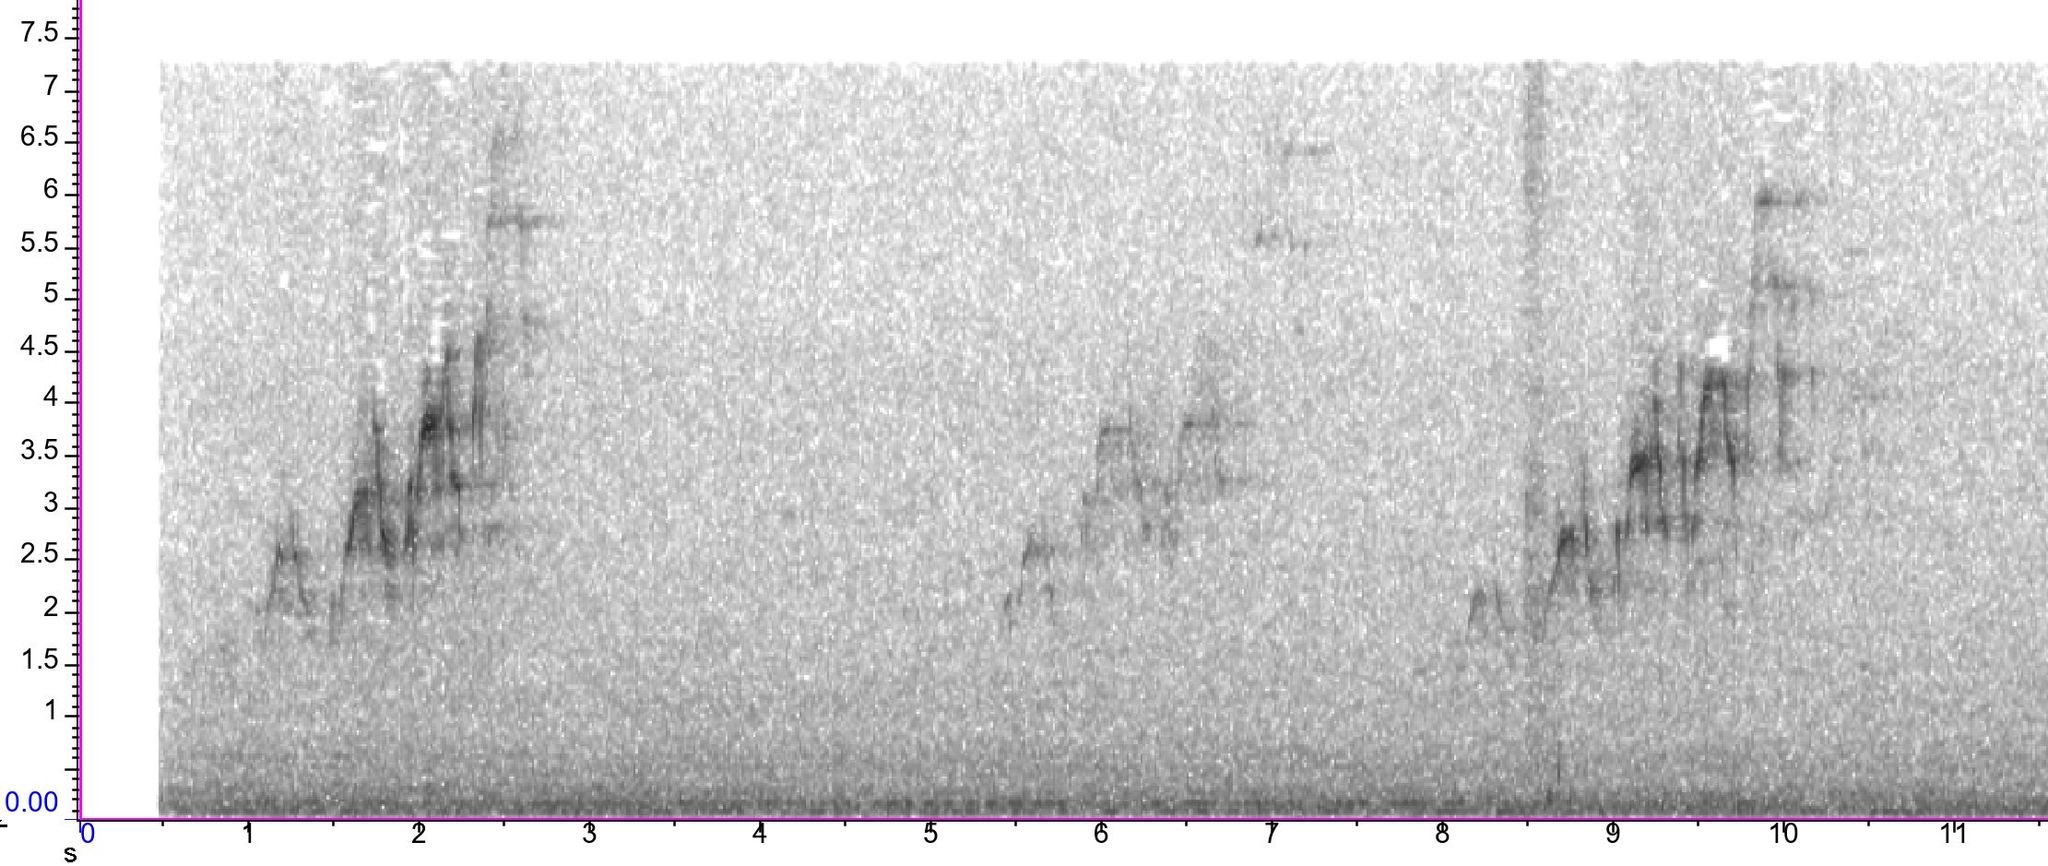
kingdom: Animalia
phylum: Chordata
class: Aves
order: Passeriformes
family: Turdidae
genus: Catharus
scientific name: Catharus ustulatus
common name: Swainson's thrush
